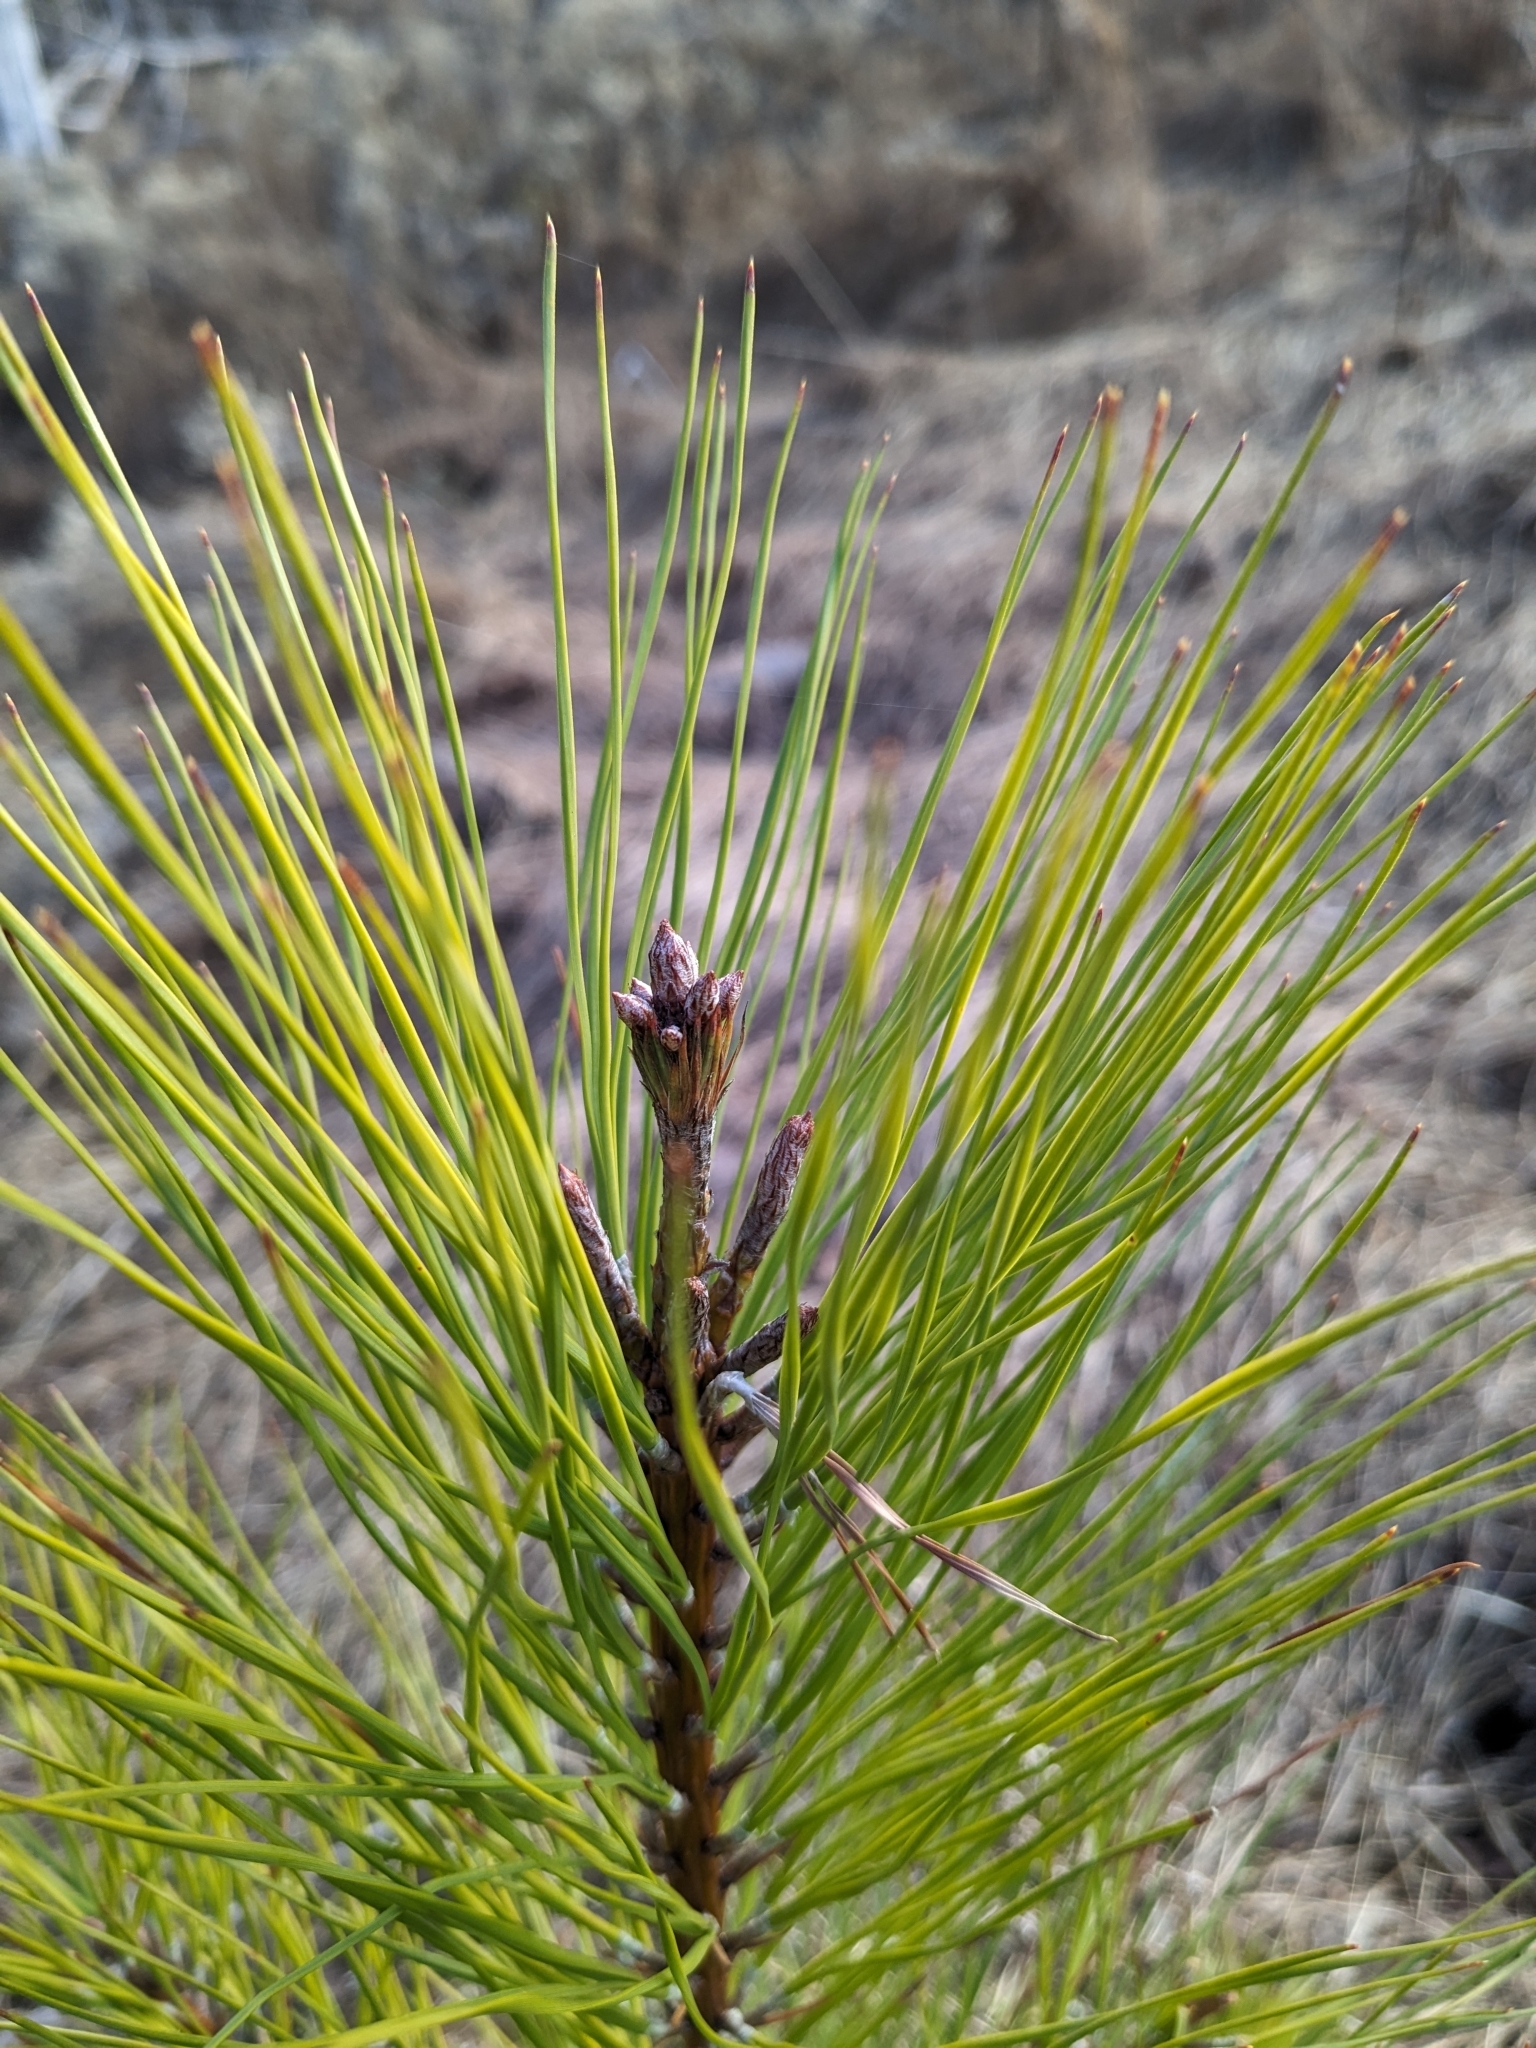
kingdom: Plantae
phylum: Tracheophyta
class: Pinopsida
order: Pinales
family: Pinaceae
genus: Pinus
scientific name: Pinus taeda
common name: Loblolly pine
